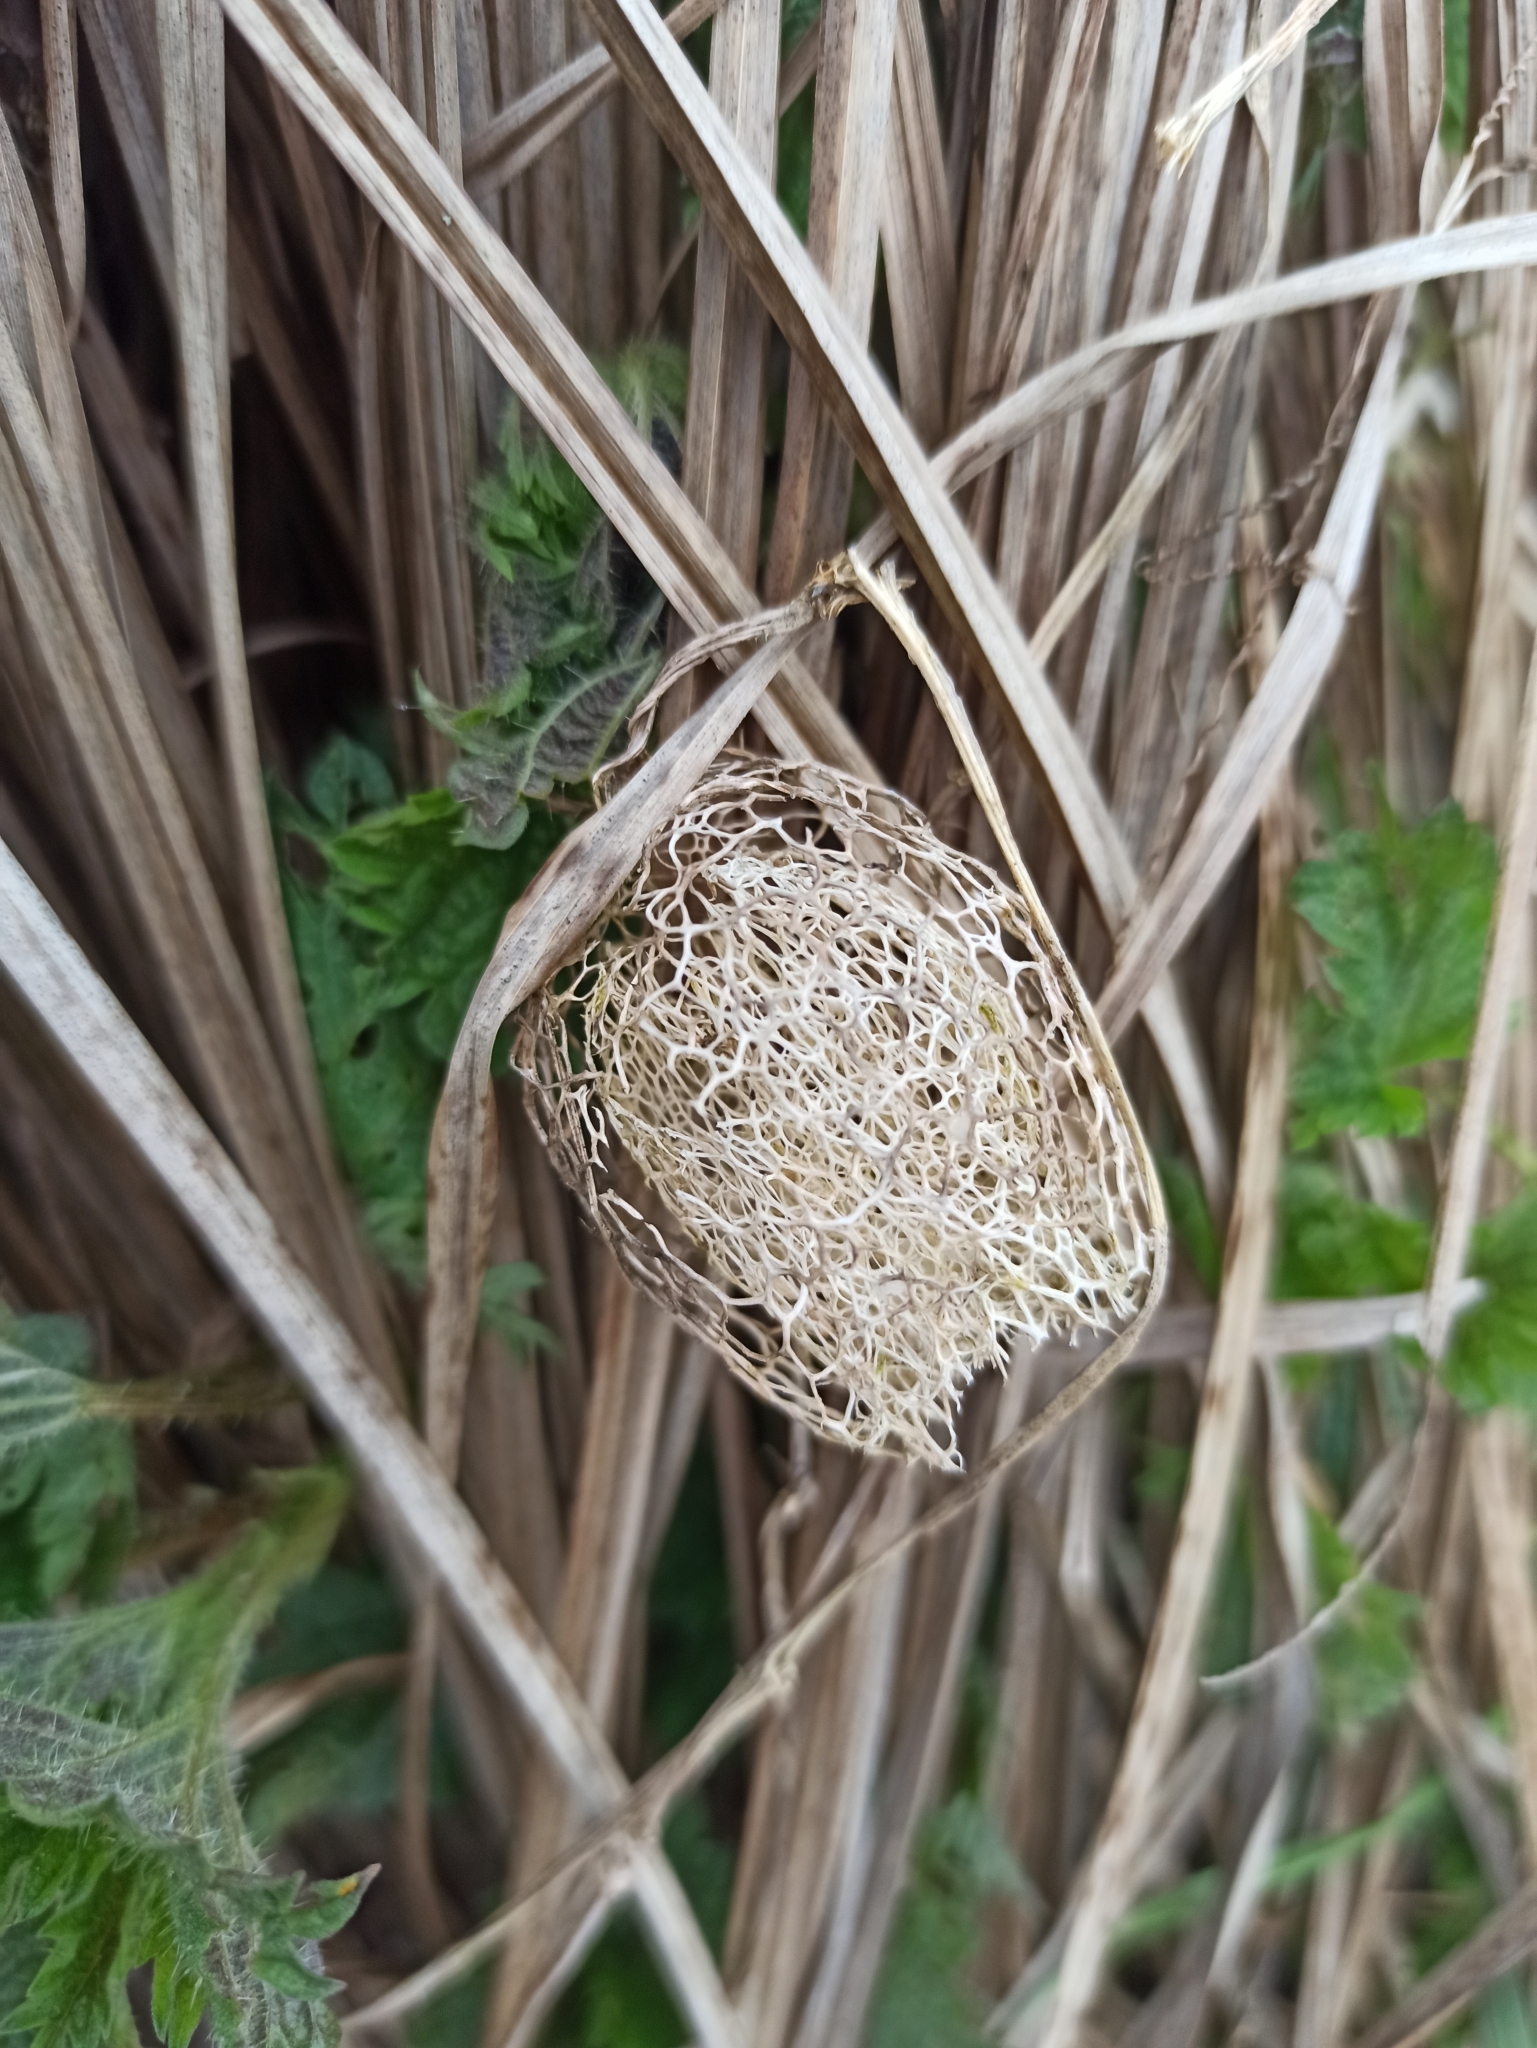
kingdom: Plantae
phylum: Tracheophyta
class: Magnoliopsida
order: Cucurbitales
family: Cucurbitaceae
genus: Echinocystis
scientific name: Echinocystis lobata
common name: Wild cucumber
